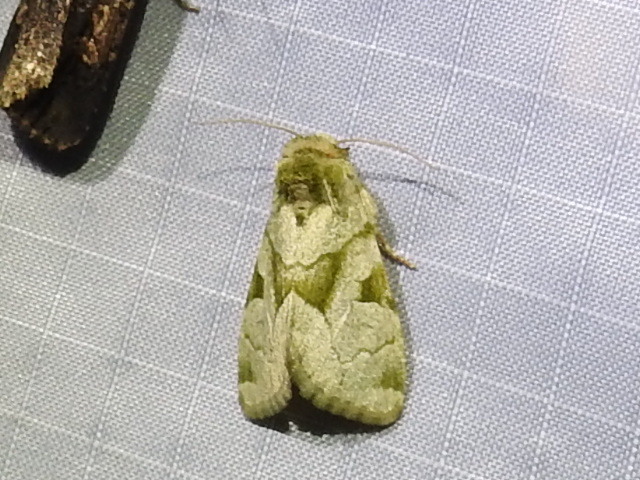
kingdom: Animalia
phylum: Arthropoda
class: Insecta
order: Lepidoptera
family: Noctuidae
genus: Oslaria
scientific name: Oslaria viridifera
